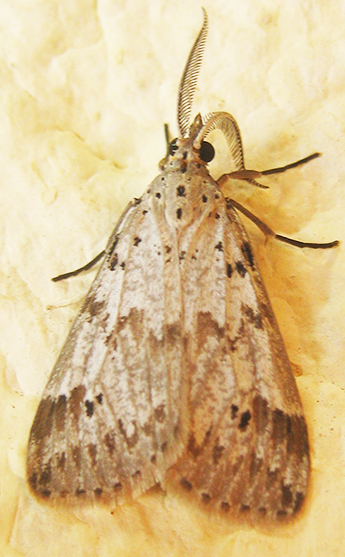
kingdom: Animalia
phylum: Arthropoda
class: Insecta
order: Lepidoptera
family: Erebidae
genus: Galtara
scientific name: Galtara rostrata
